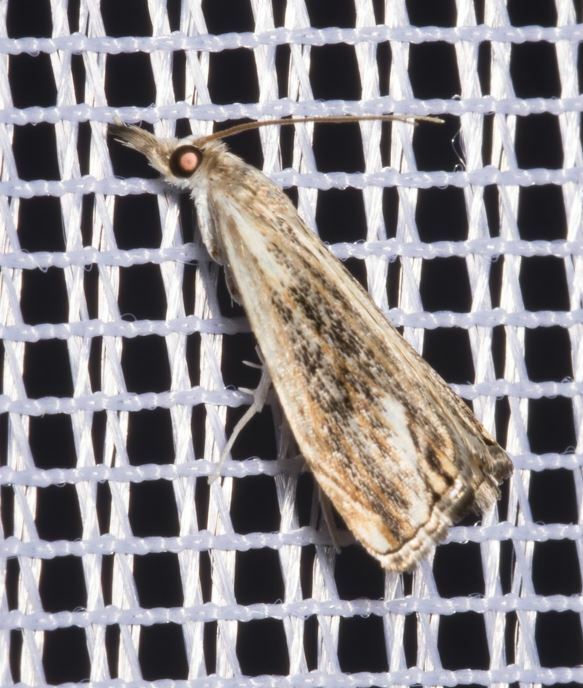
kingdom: Animalia
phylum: Arthropoda
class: Insecta
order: Lepidoptera
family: Crambidae
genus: Catoptria
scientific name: Catoptria verellus
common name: Marbled grass-veneer
